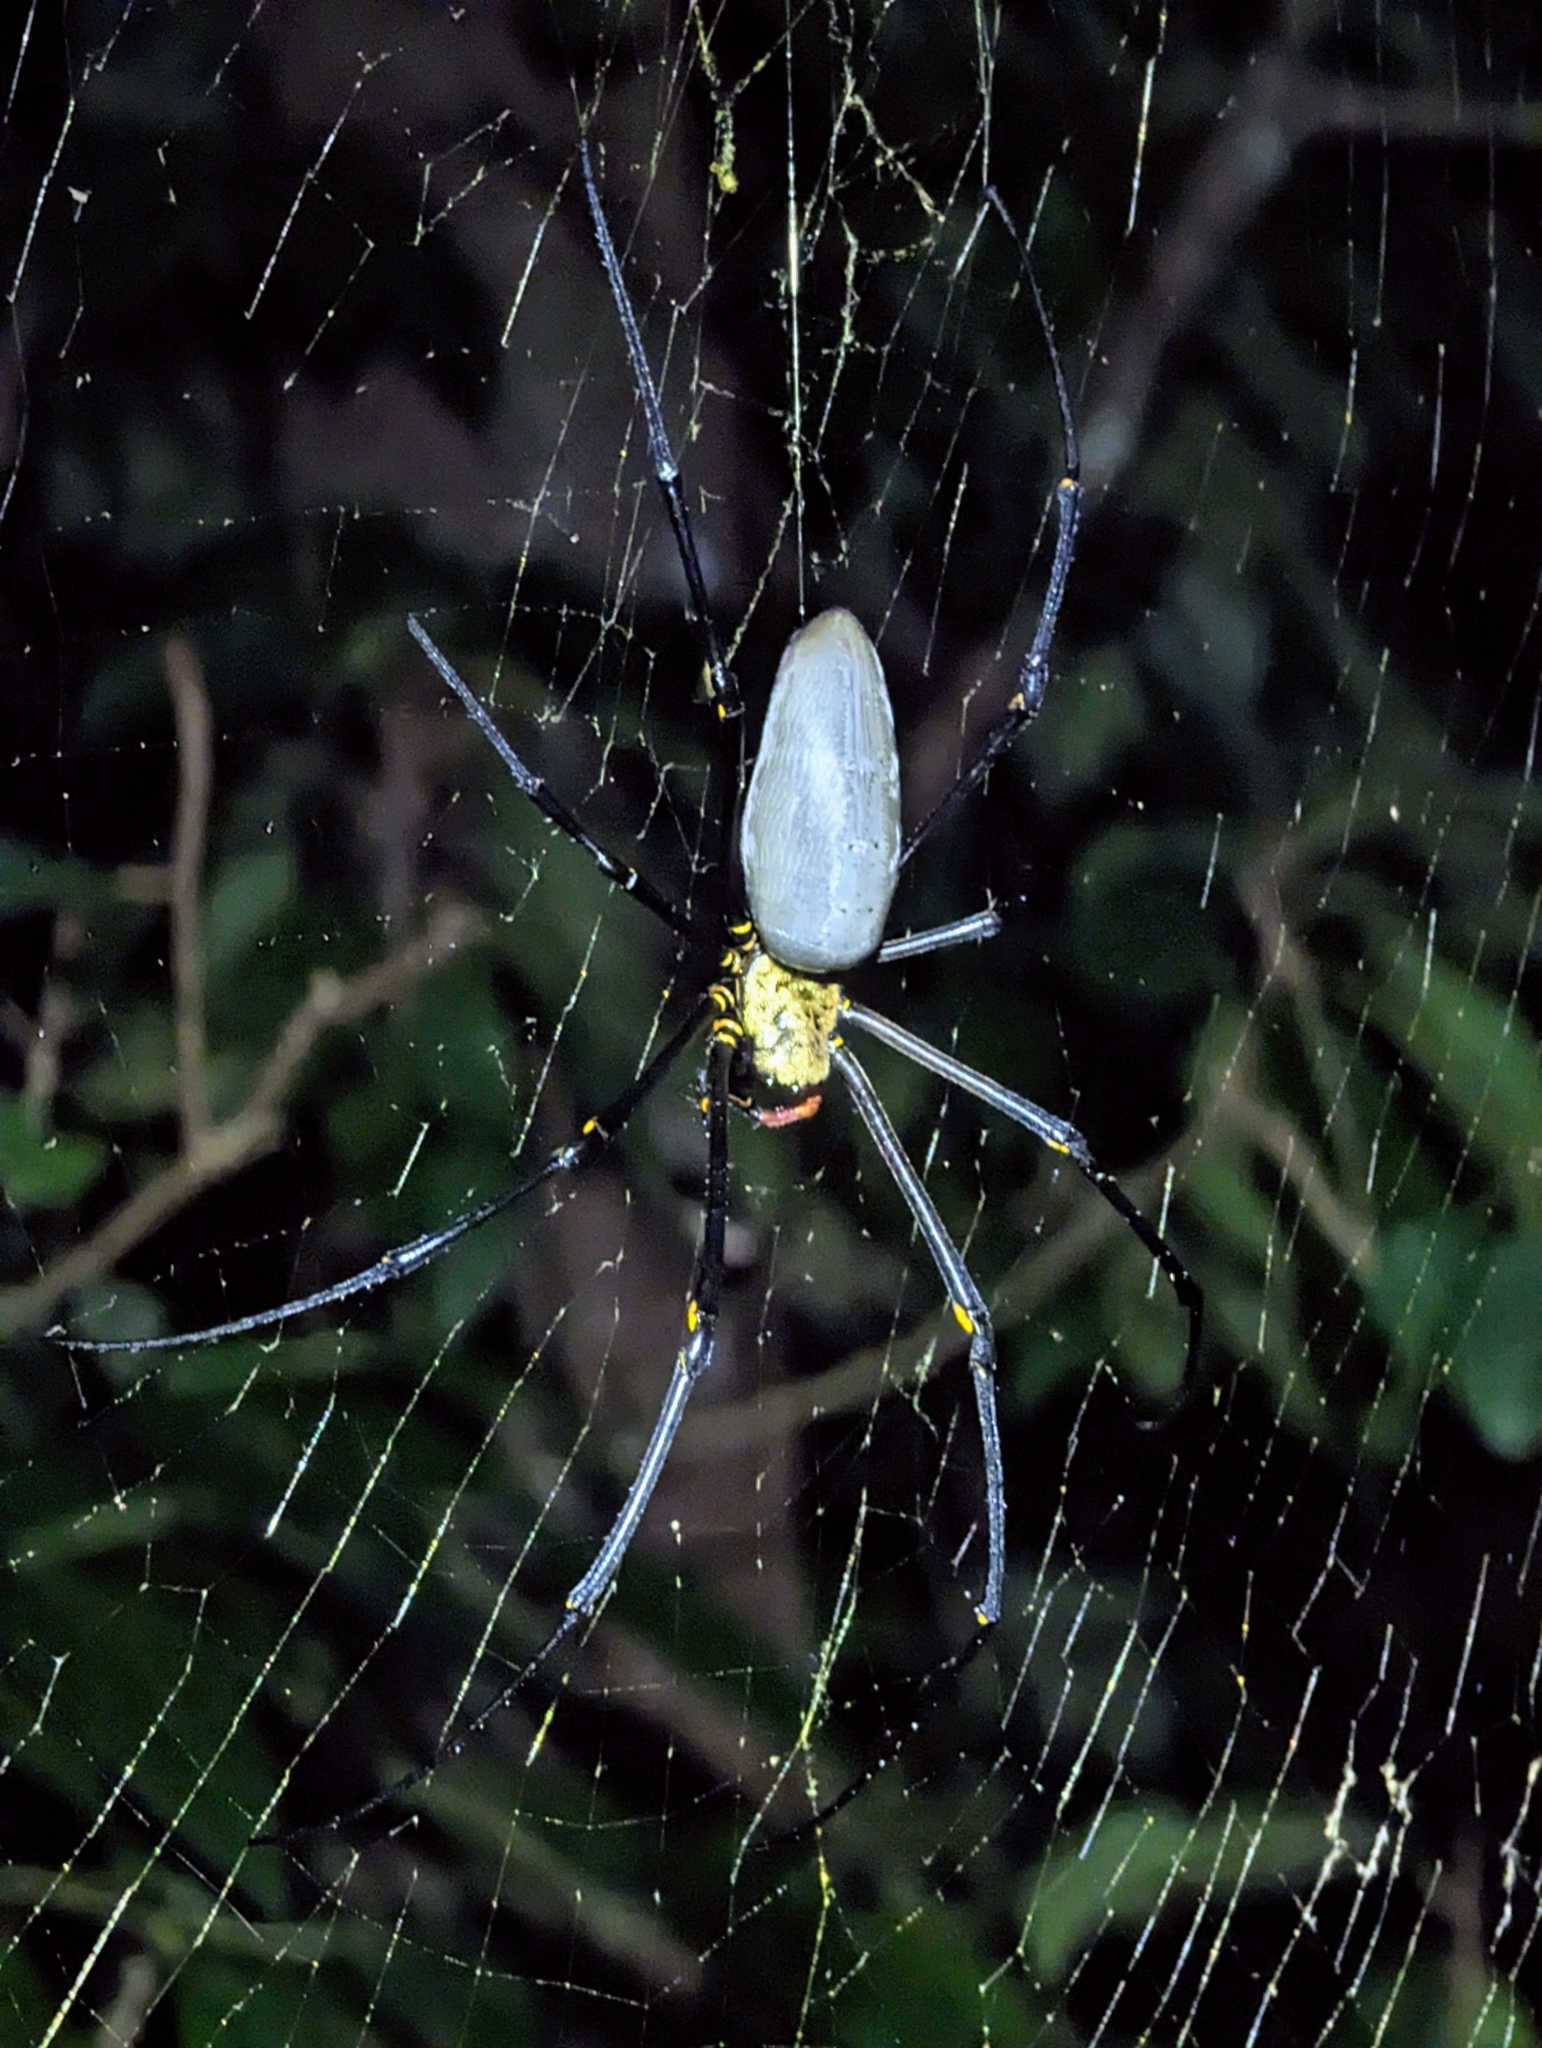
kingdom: Animalia
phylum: Arthropoda
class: Arachnida
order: Araneae
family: Araneidae
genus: Nephila
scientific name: Nephila pilipes
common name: Giant golden orb weaver
